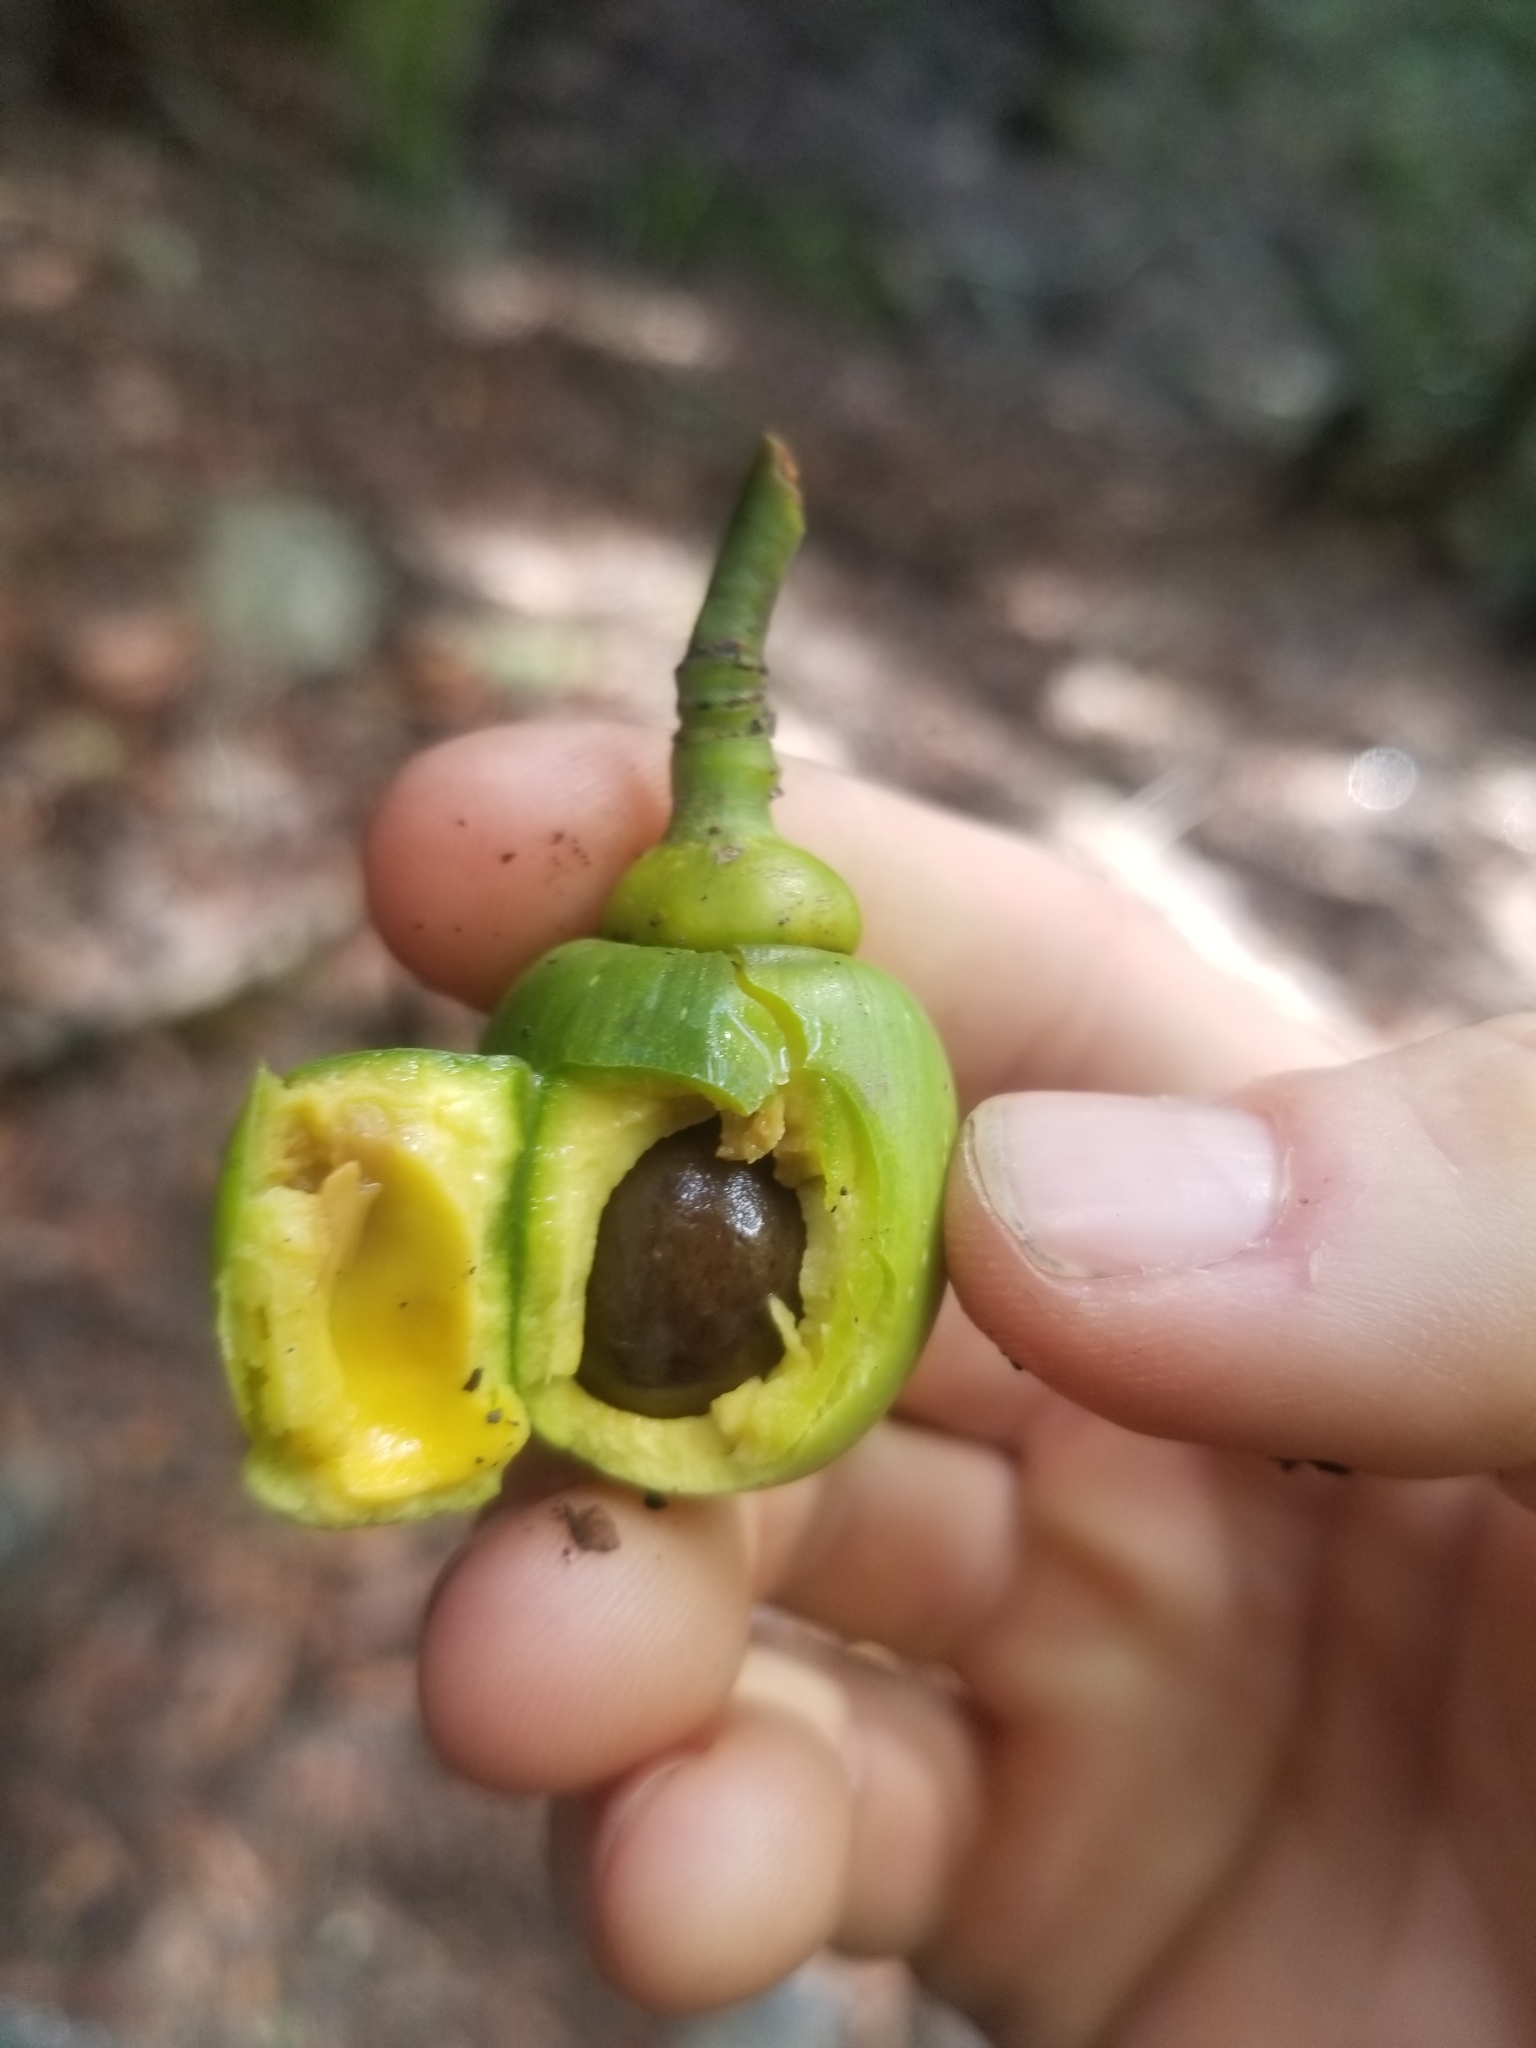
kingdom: Plantae
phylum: Tracheophyta
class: Magnoliopsida
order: Laurales
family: Lauraceae
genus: Umbellularia
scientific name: Umbellularia californica
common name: California bay
